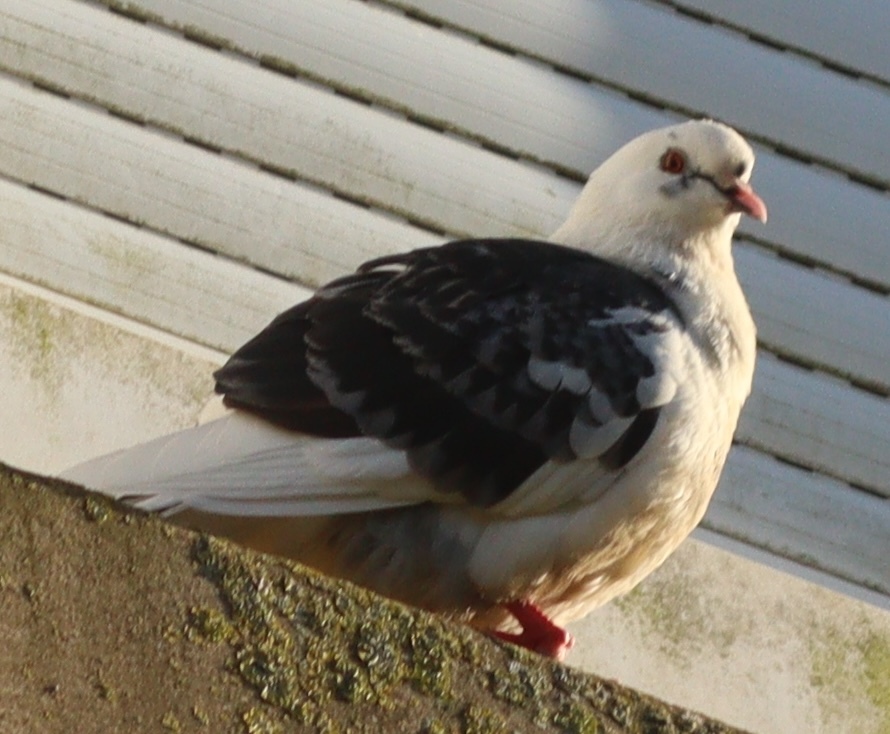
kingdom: Animalia
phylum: Chordata
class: Aves
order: Columbiformes
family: Columbidae
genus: Columba
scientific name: Columba livia
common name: Rock pigeon
